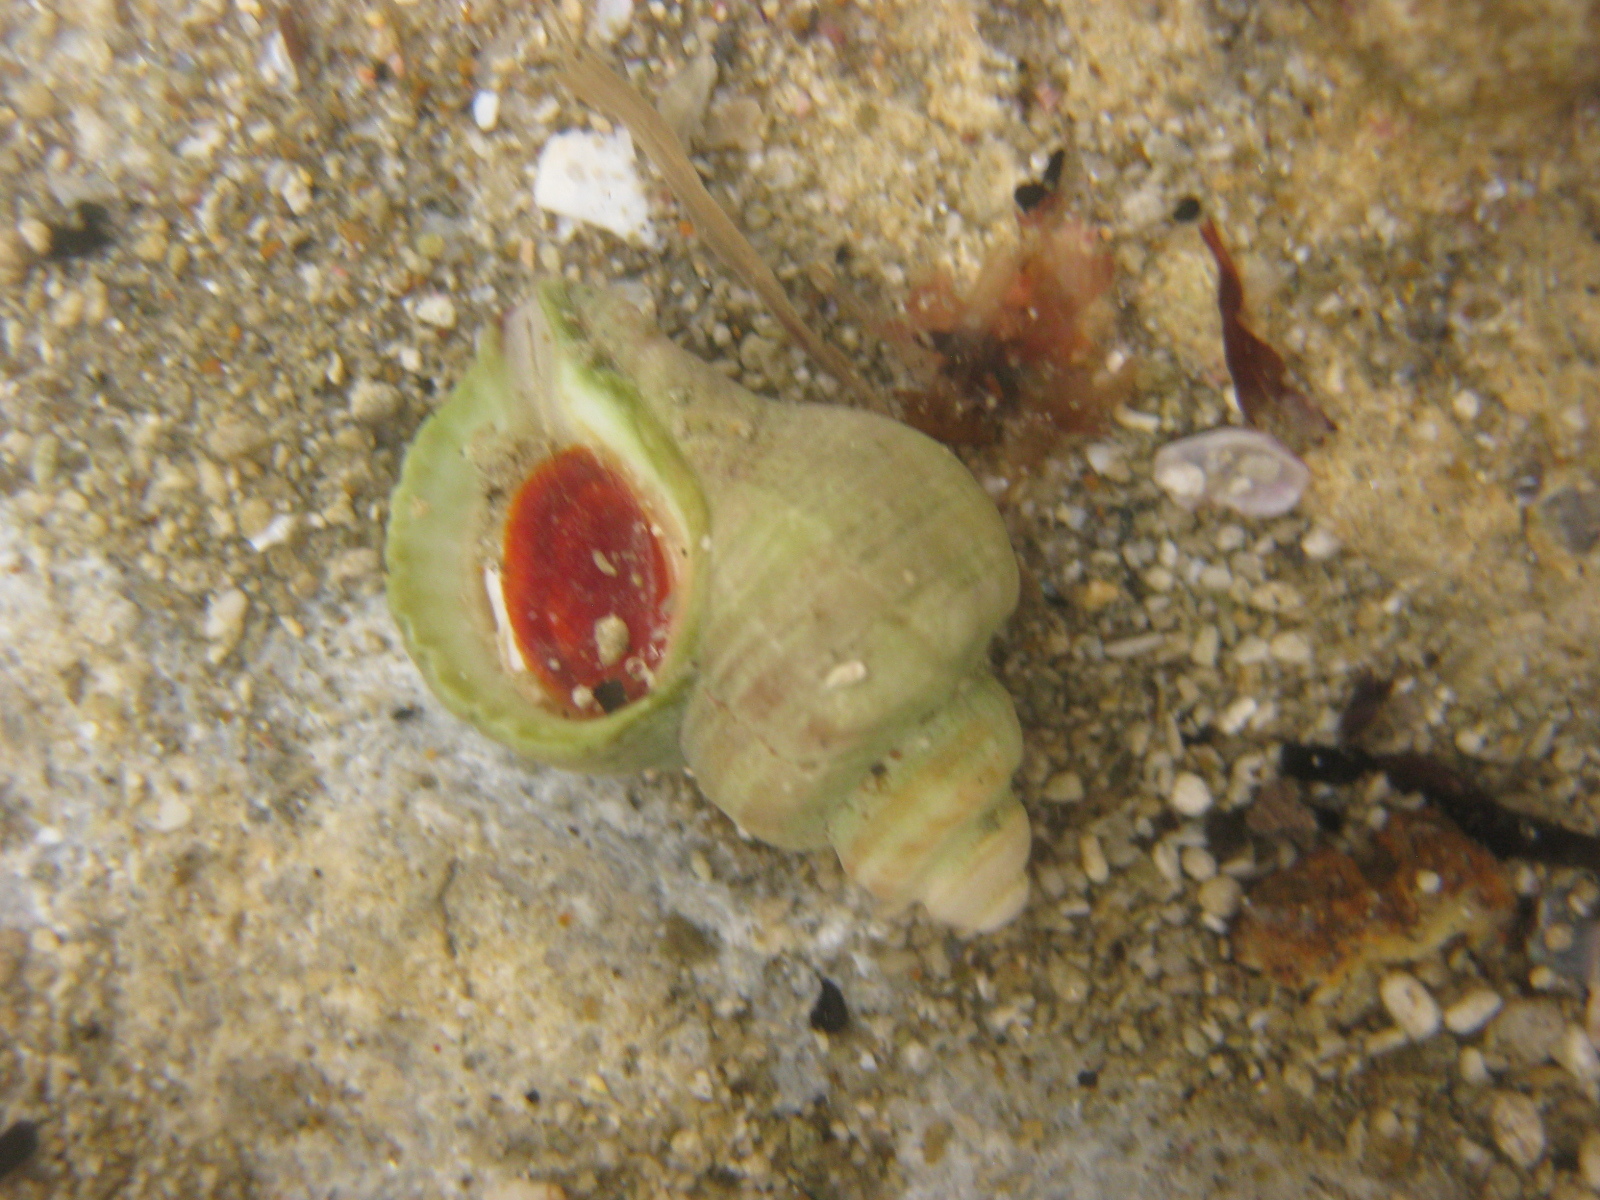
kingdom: Animalia
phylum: Mollusca
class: Gastropoda
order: Neogastropoda
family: Muricidae
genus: Zeatrophon
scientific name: Zeatrophon ambiguus
